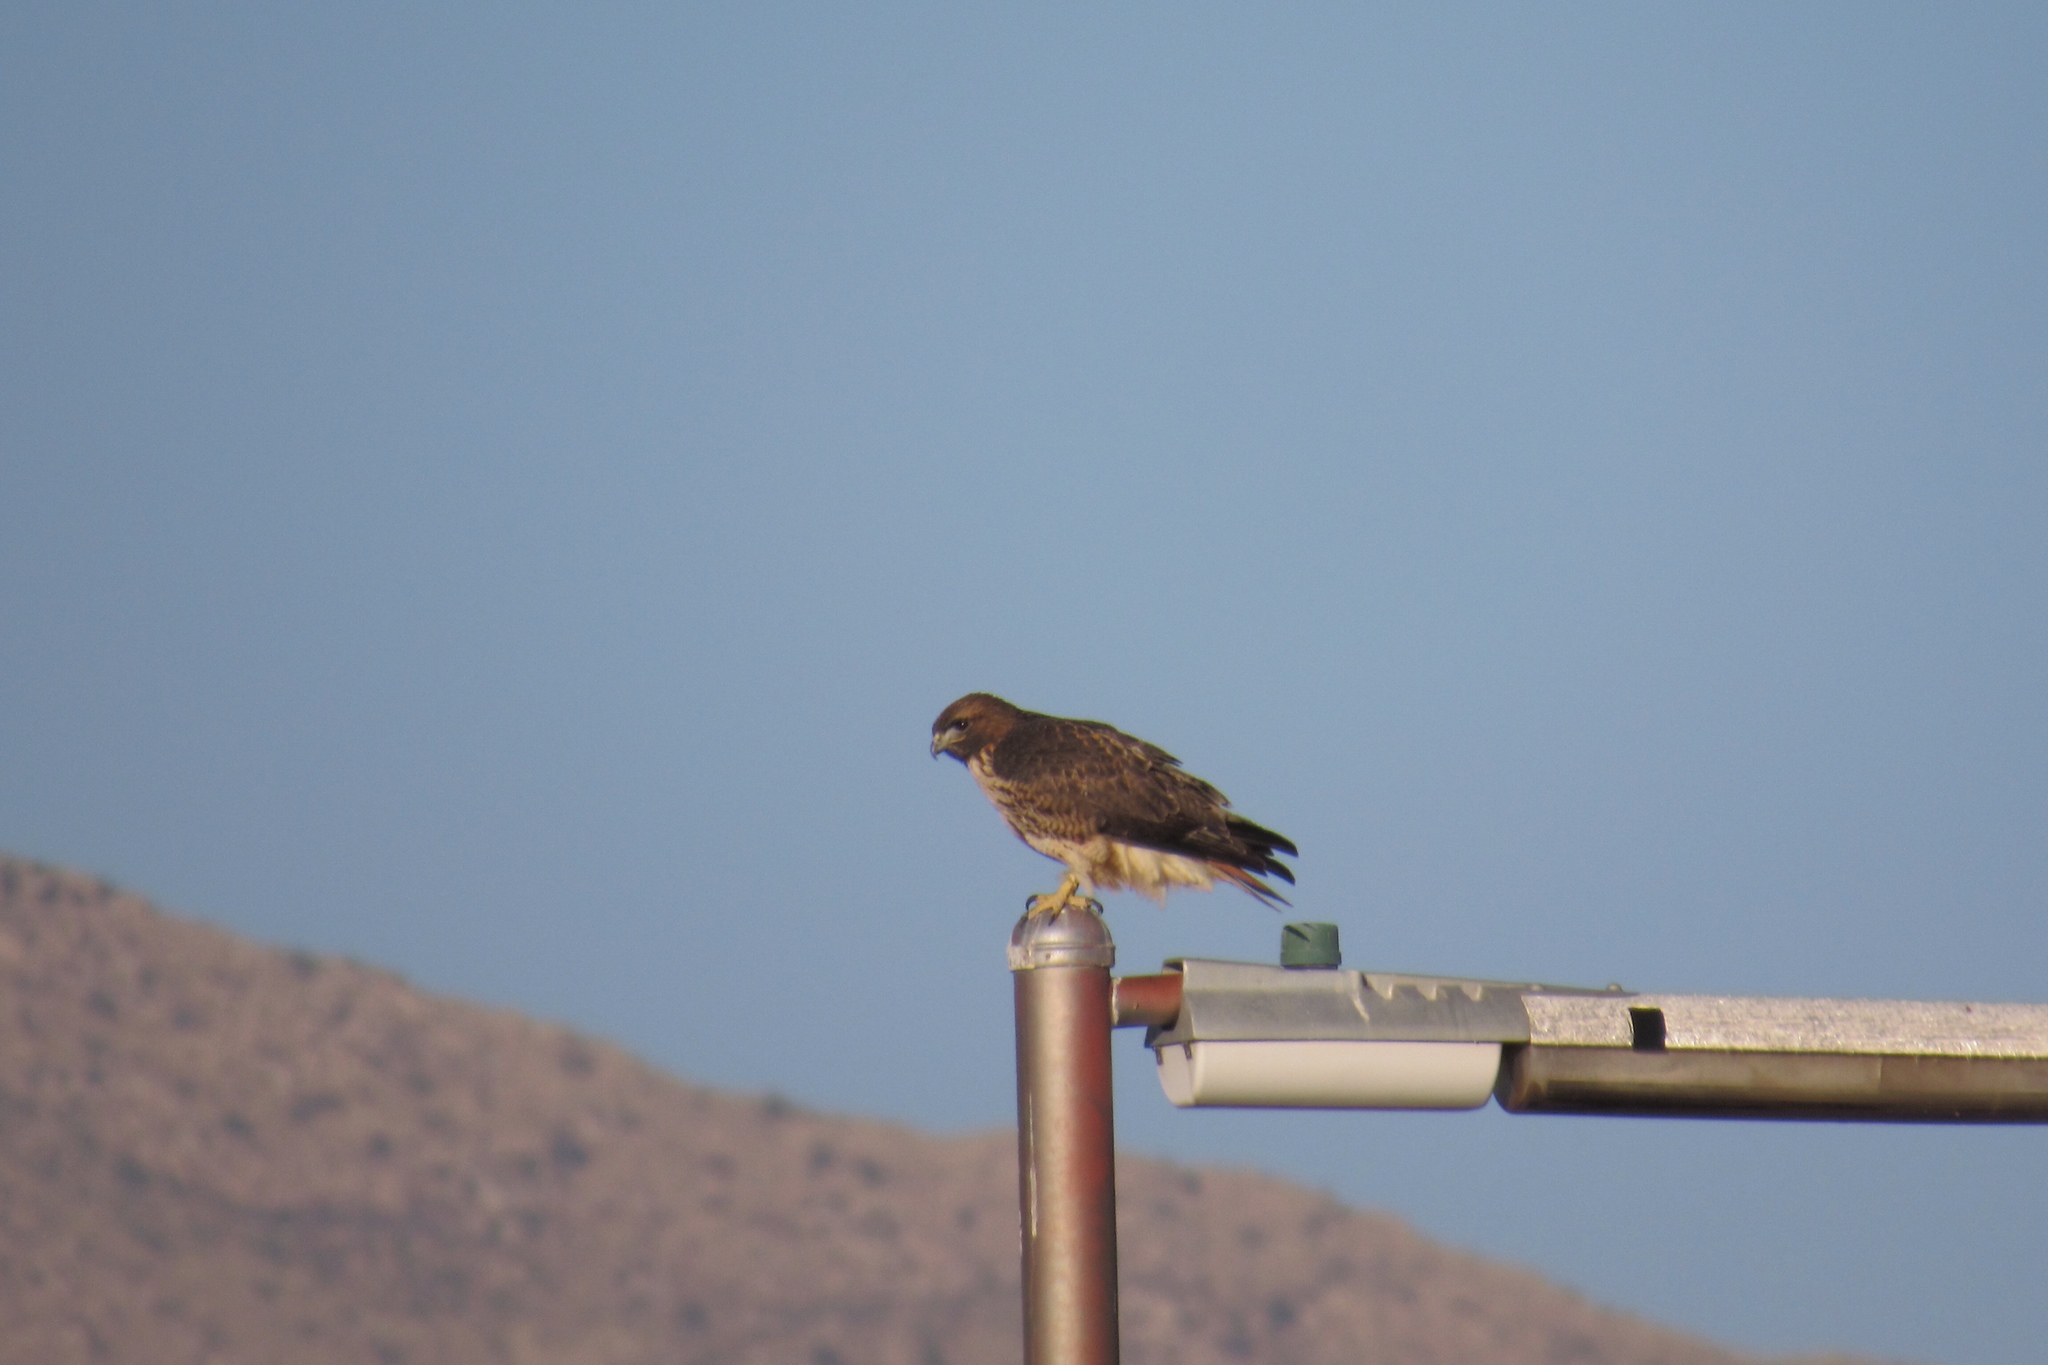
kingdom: Animalia
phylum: Chordata
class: Aves
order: Accipitriformes
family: Accipitridae
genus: Buteo
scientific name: Buteo jamaicensis
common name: Red-tailed hawk
